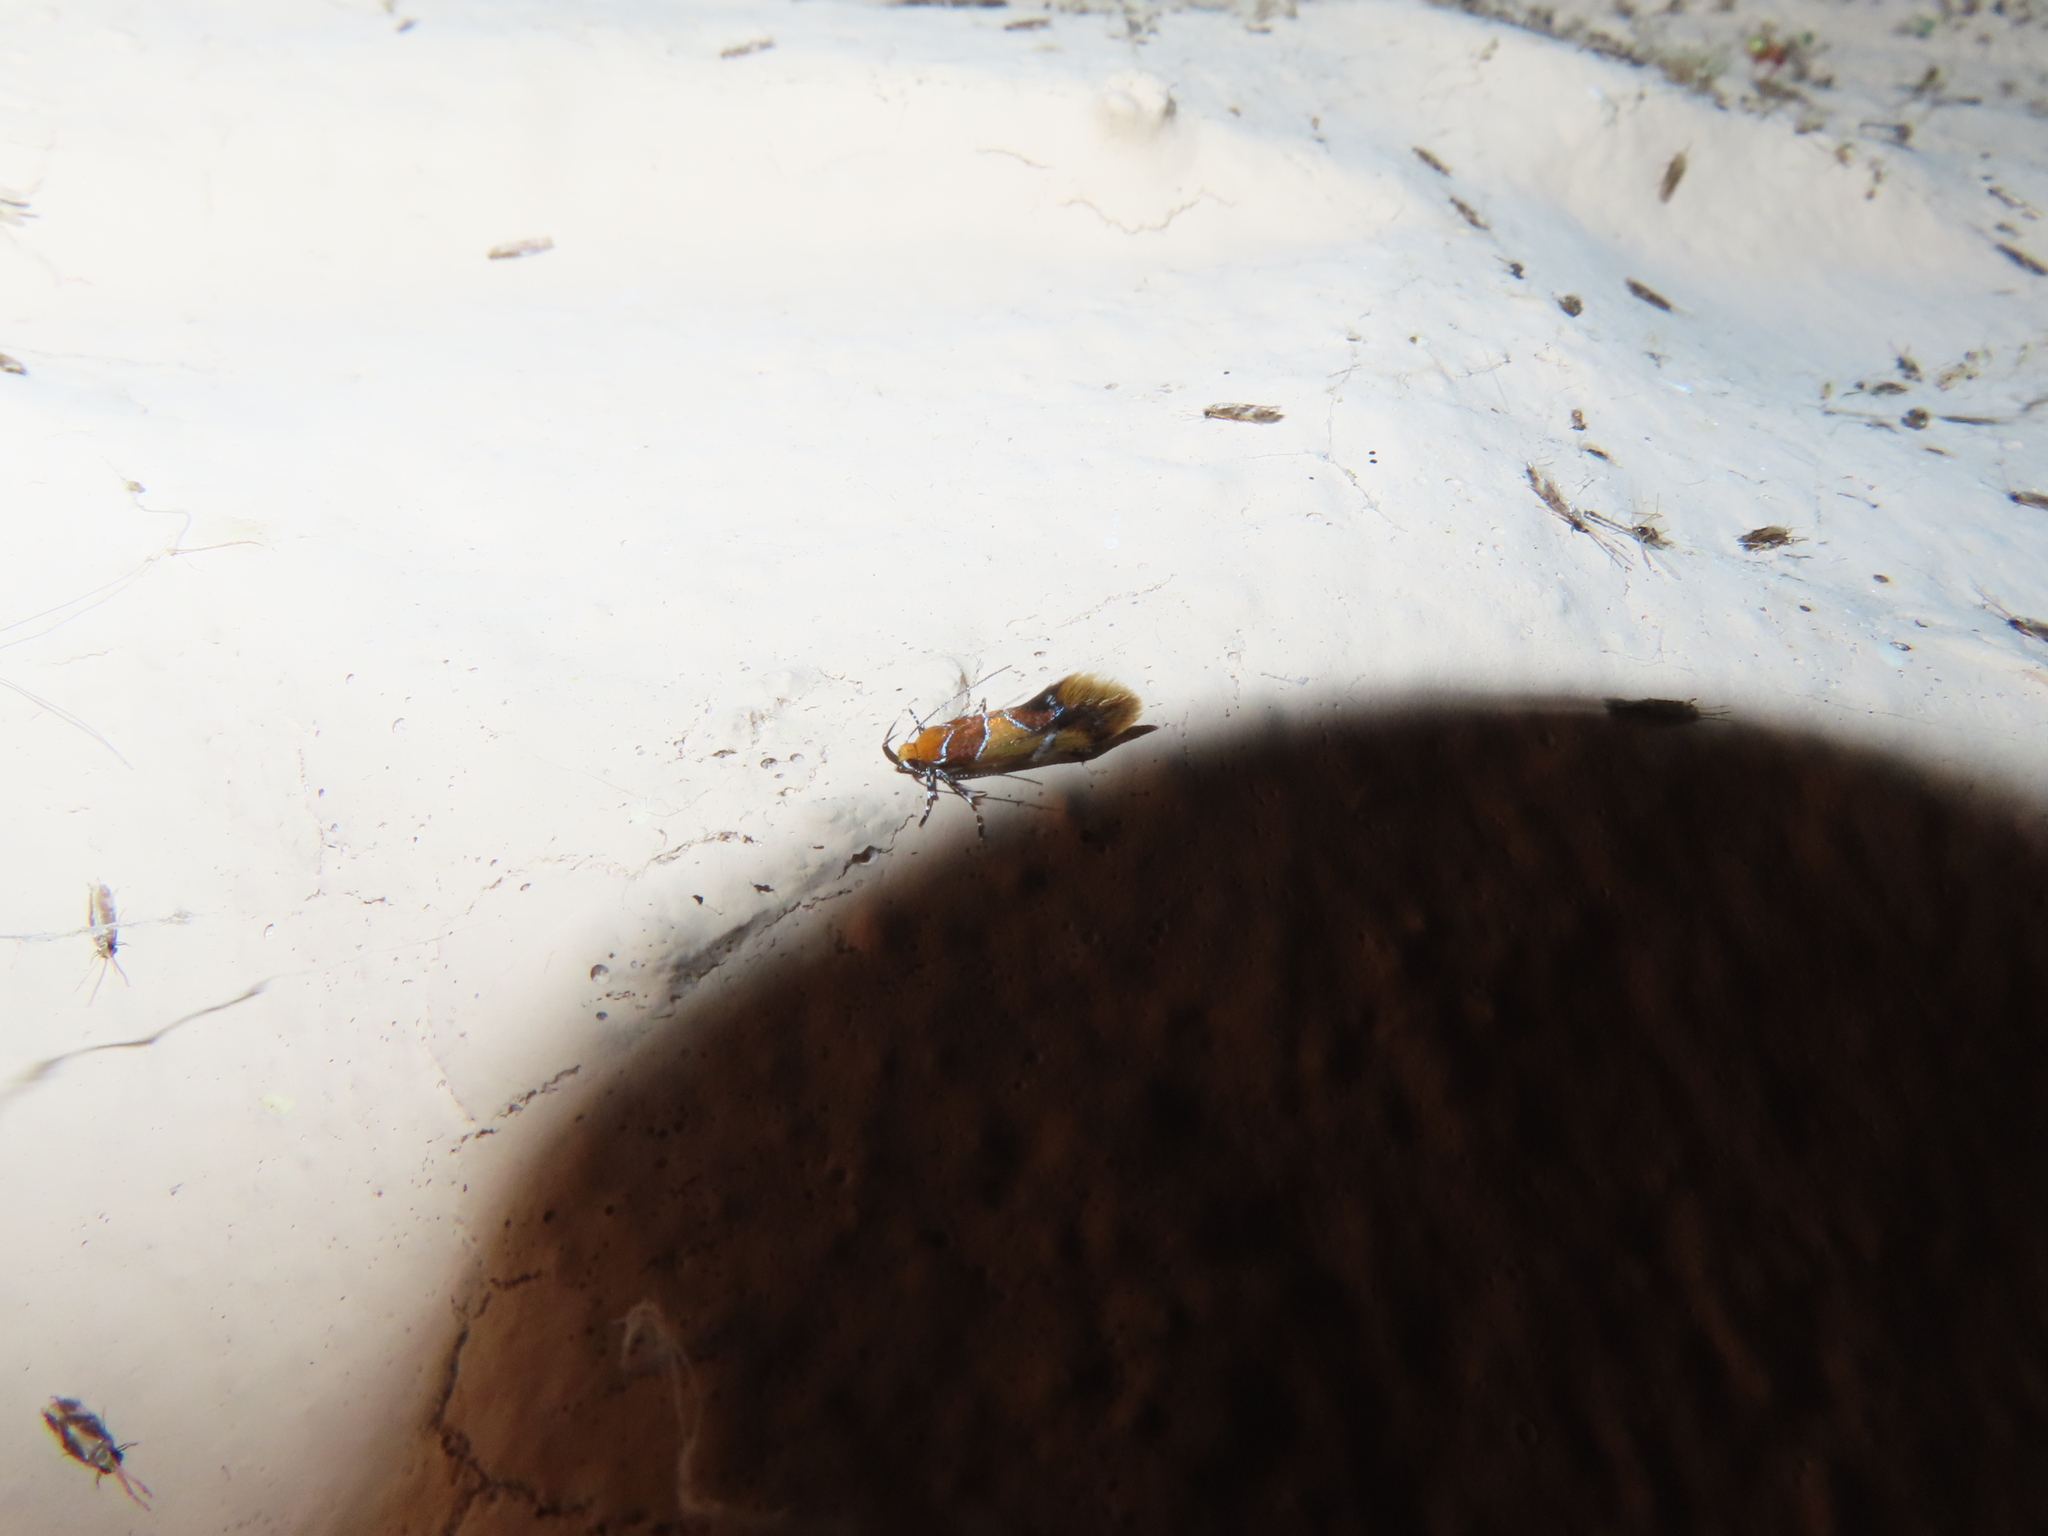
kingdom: Animalia
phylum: Arthropoda
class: Insecta
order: Lepidoptera
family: Oecophoridae
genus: Callima
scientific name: Callima argenticinctella
